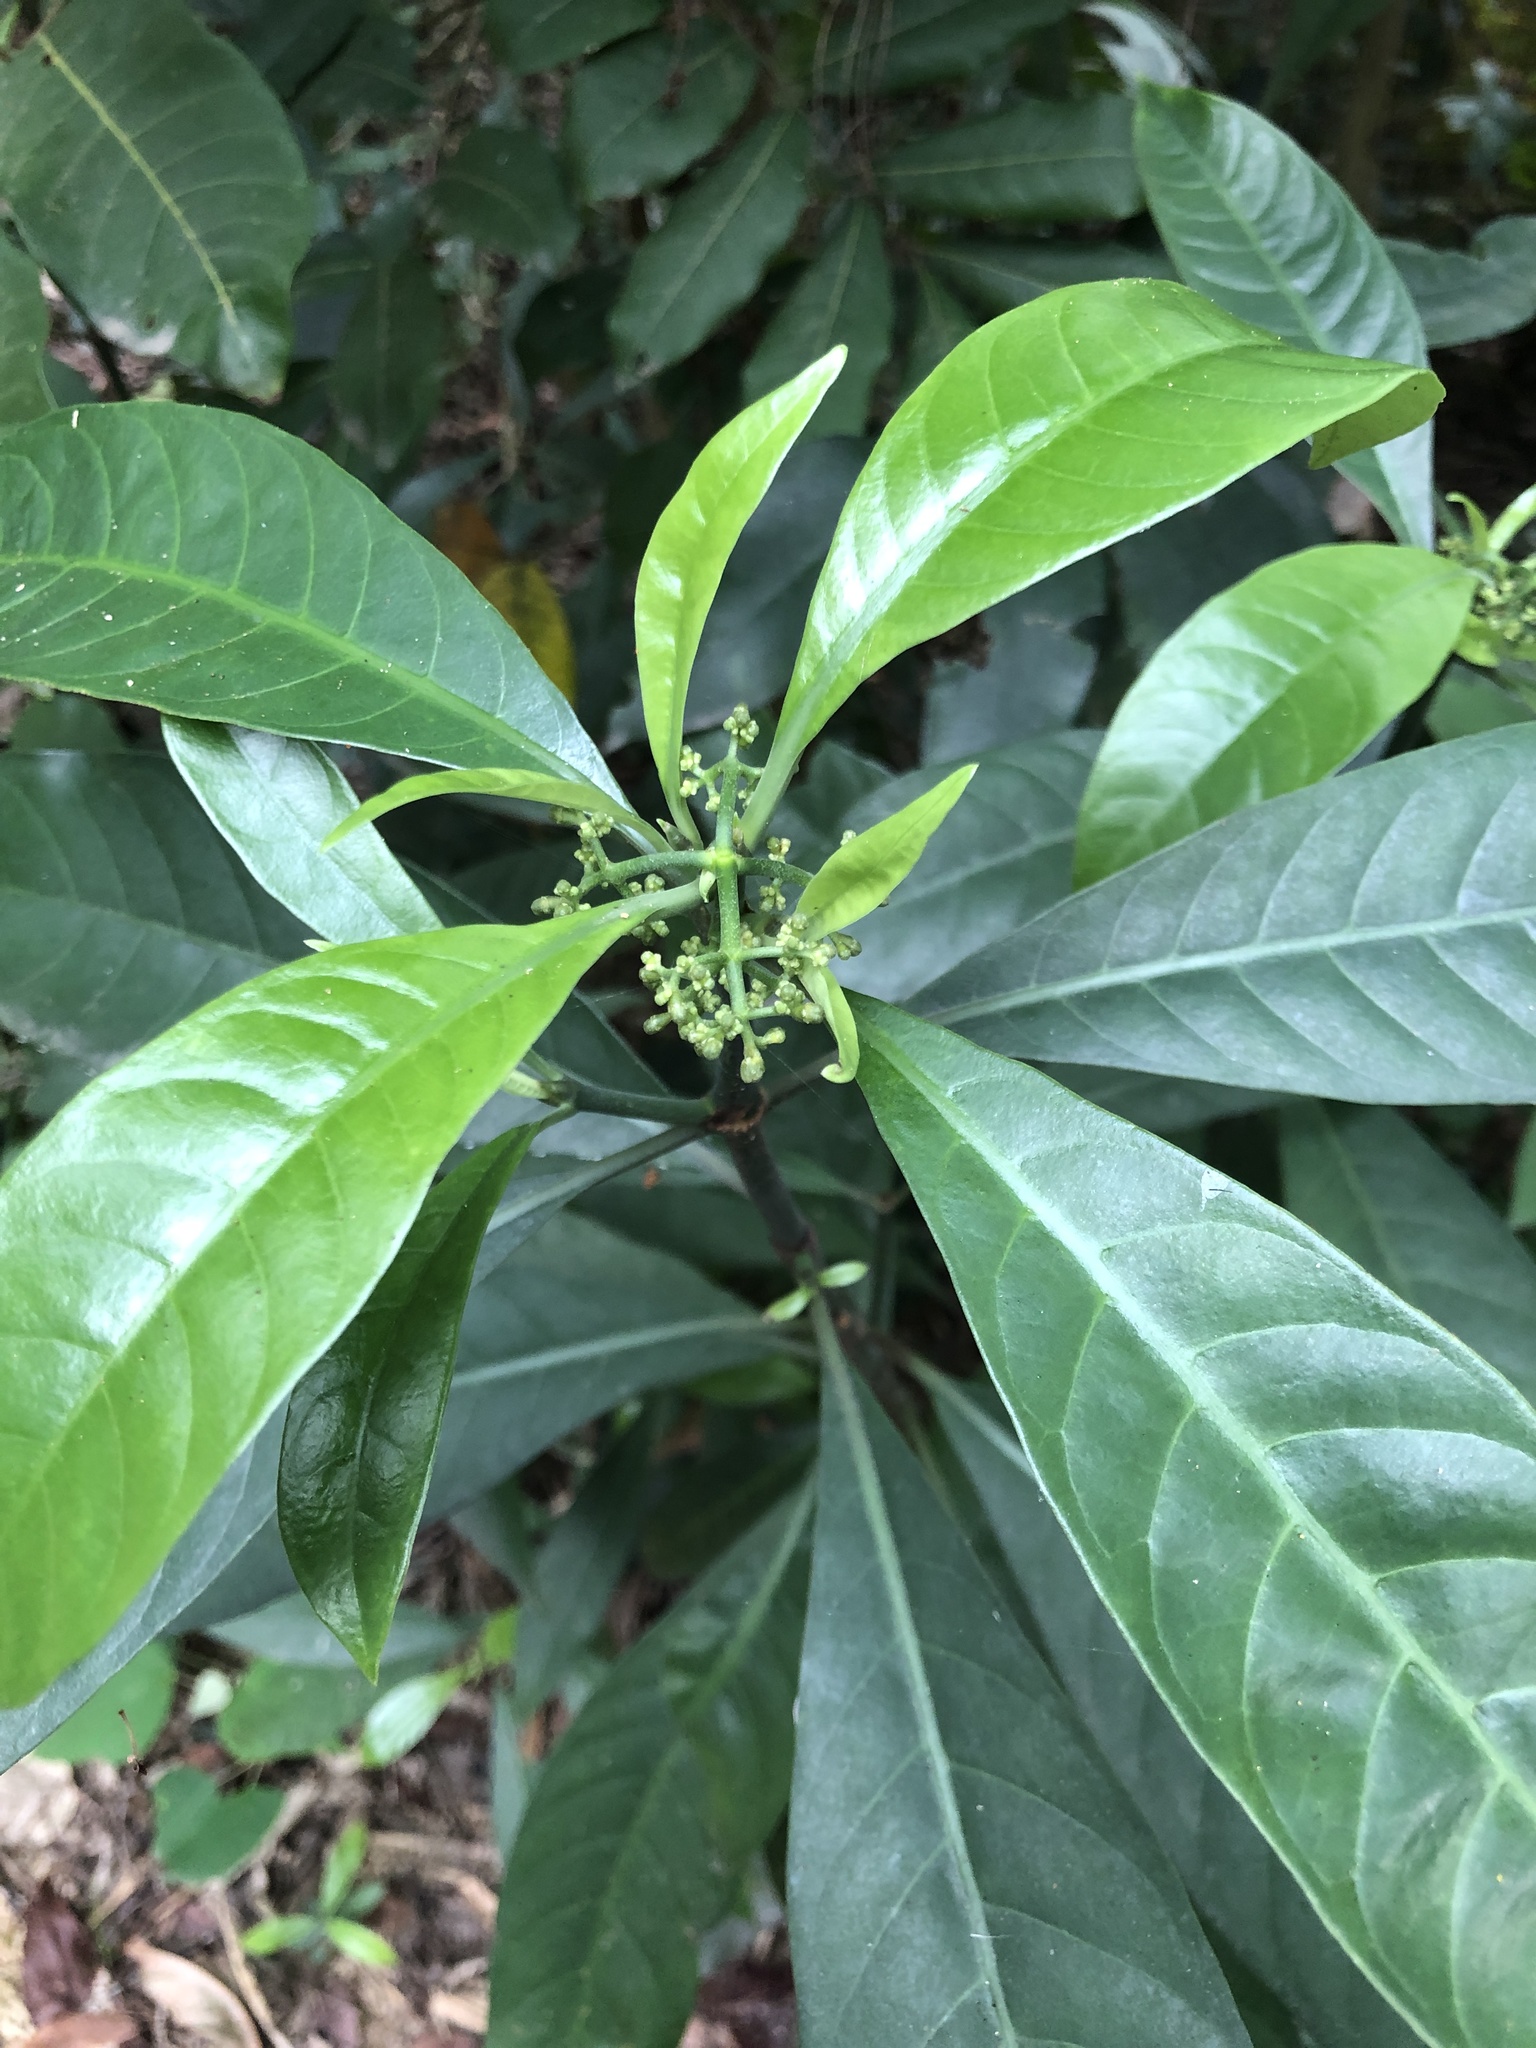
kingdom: Plantae
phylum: Tracheophyta
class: Magnoliopsida
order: Gentianales
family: Rubiaceae
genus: Psychotria
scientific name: Psychotria asiatica
